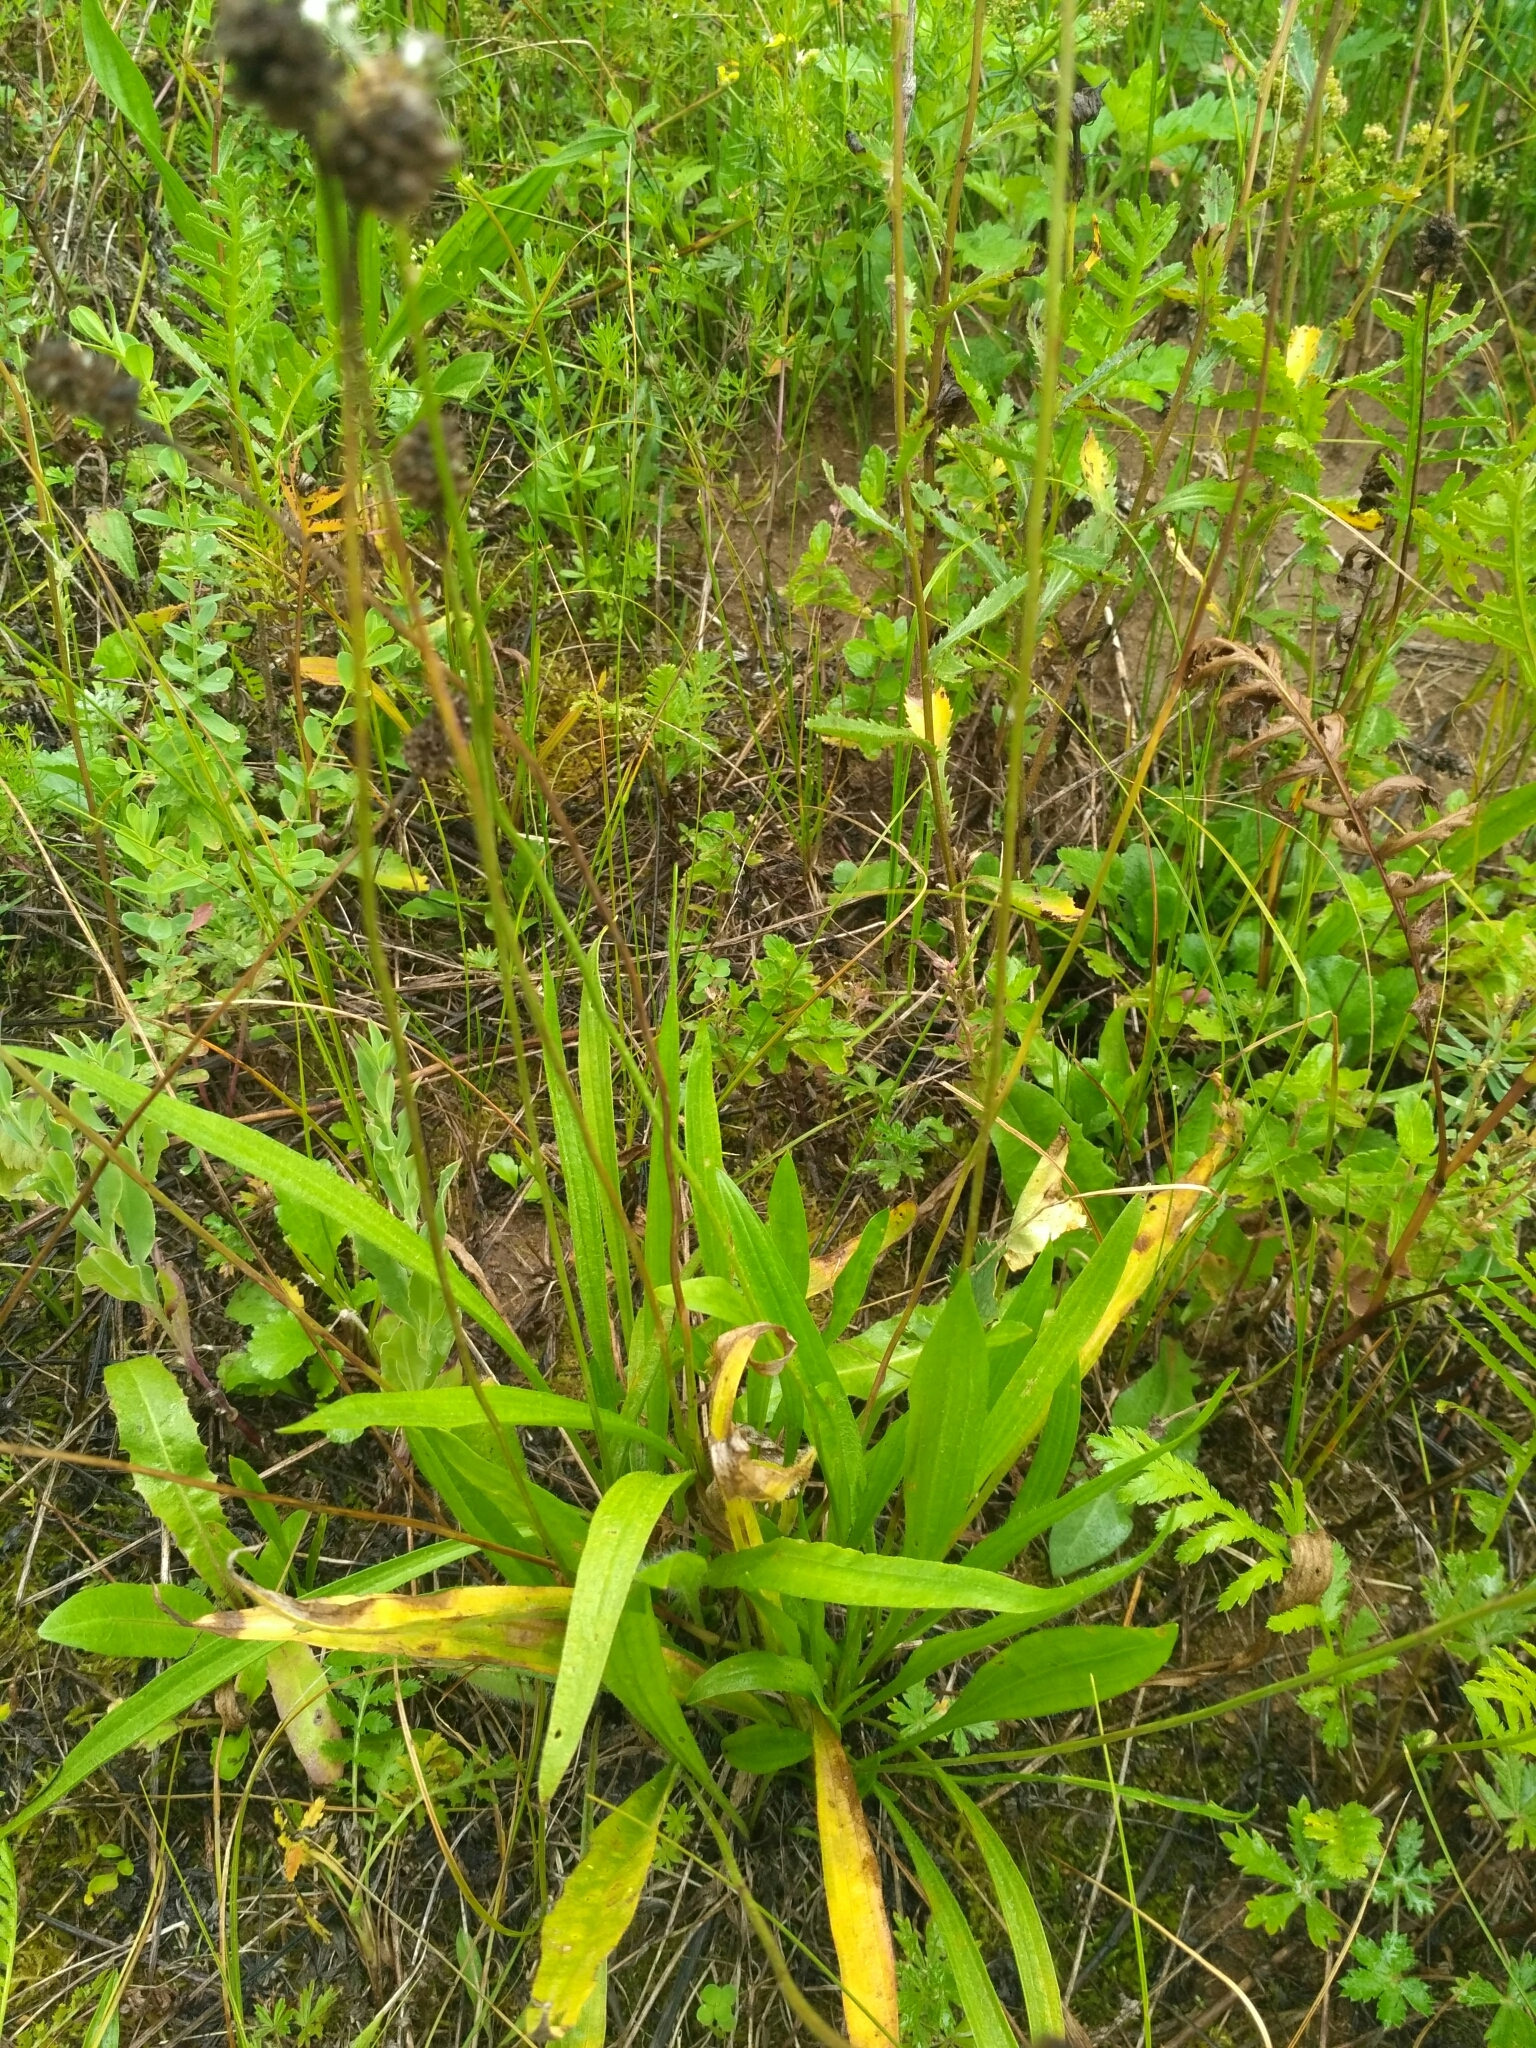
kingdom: Plantae
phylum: Tracheophyta
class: Magnoliopsida
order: Lamiales
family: Plantaginaceae
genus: Plantago
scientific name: Plantago lanceolata
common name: Ribwort plantain
